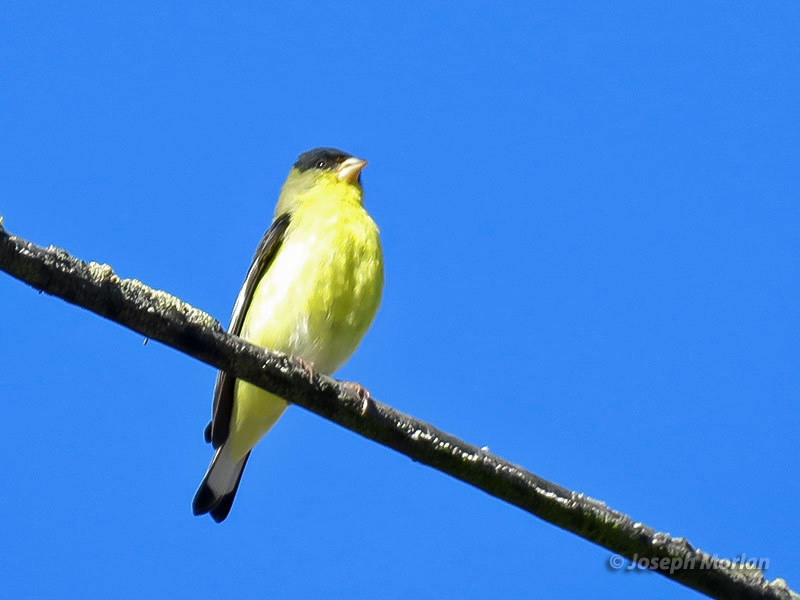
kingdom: Animalia
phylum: Chordata
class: Aves
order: Passeriformes
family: Fringillidae
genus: Spinus
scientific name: Spinus psaltria
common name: Lesser goldfinch
